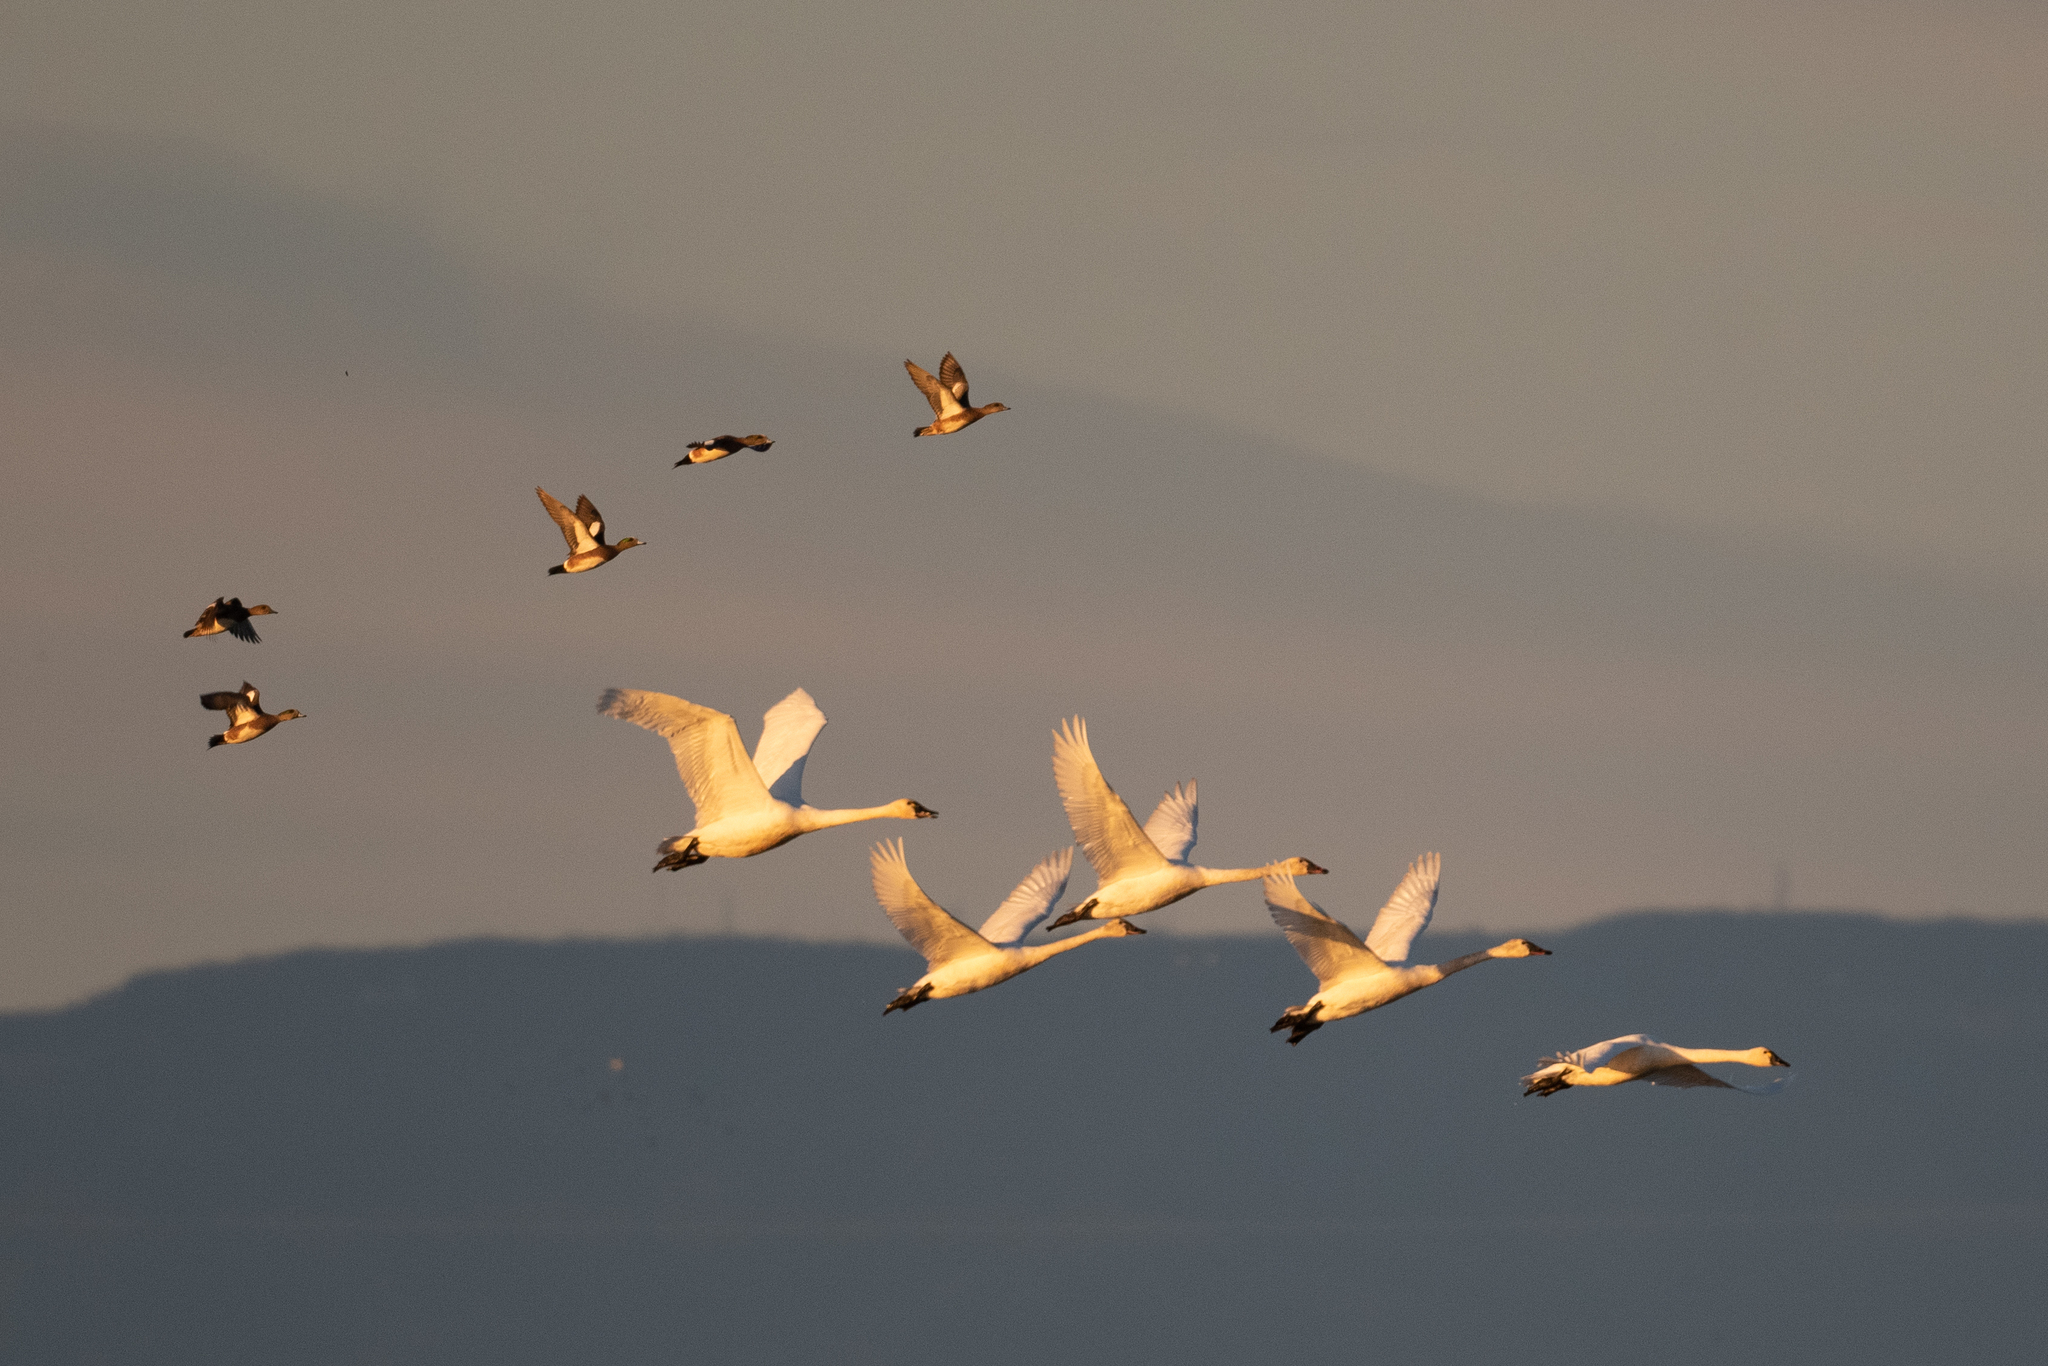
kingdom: Animalia
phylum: Chordata
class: Aves
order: Anseriformes
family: Anatidae
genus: Cygnus
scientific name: Cygnus columbianus
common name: Tundra swan
